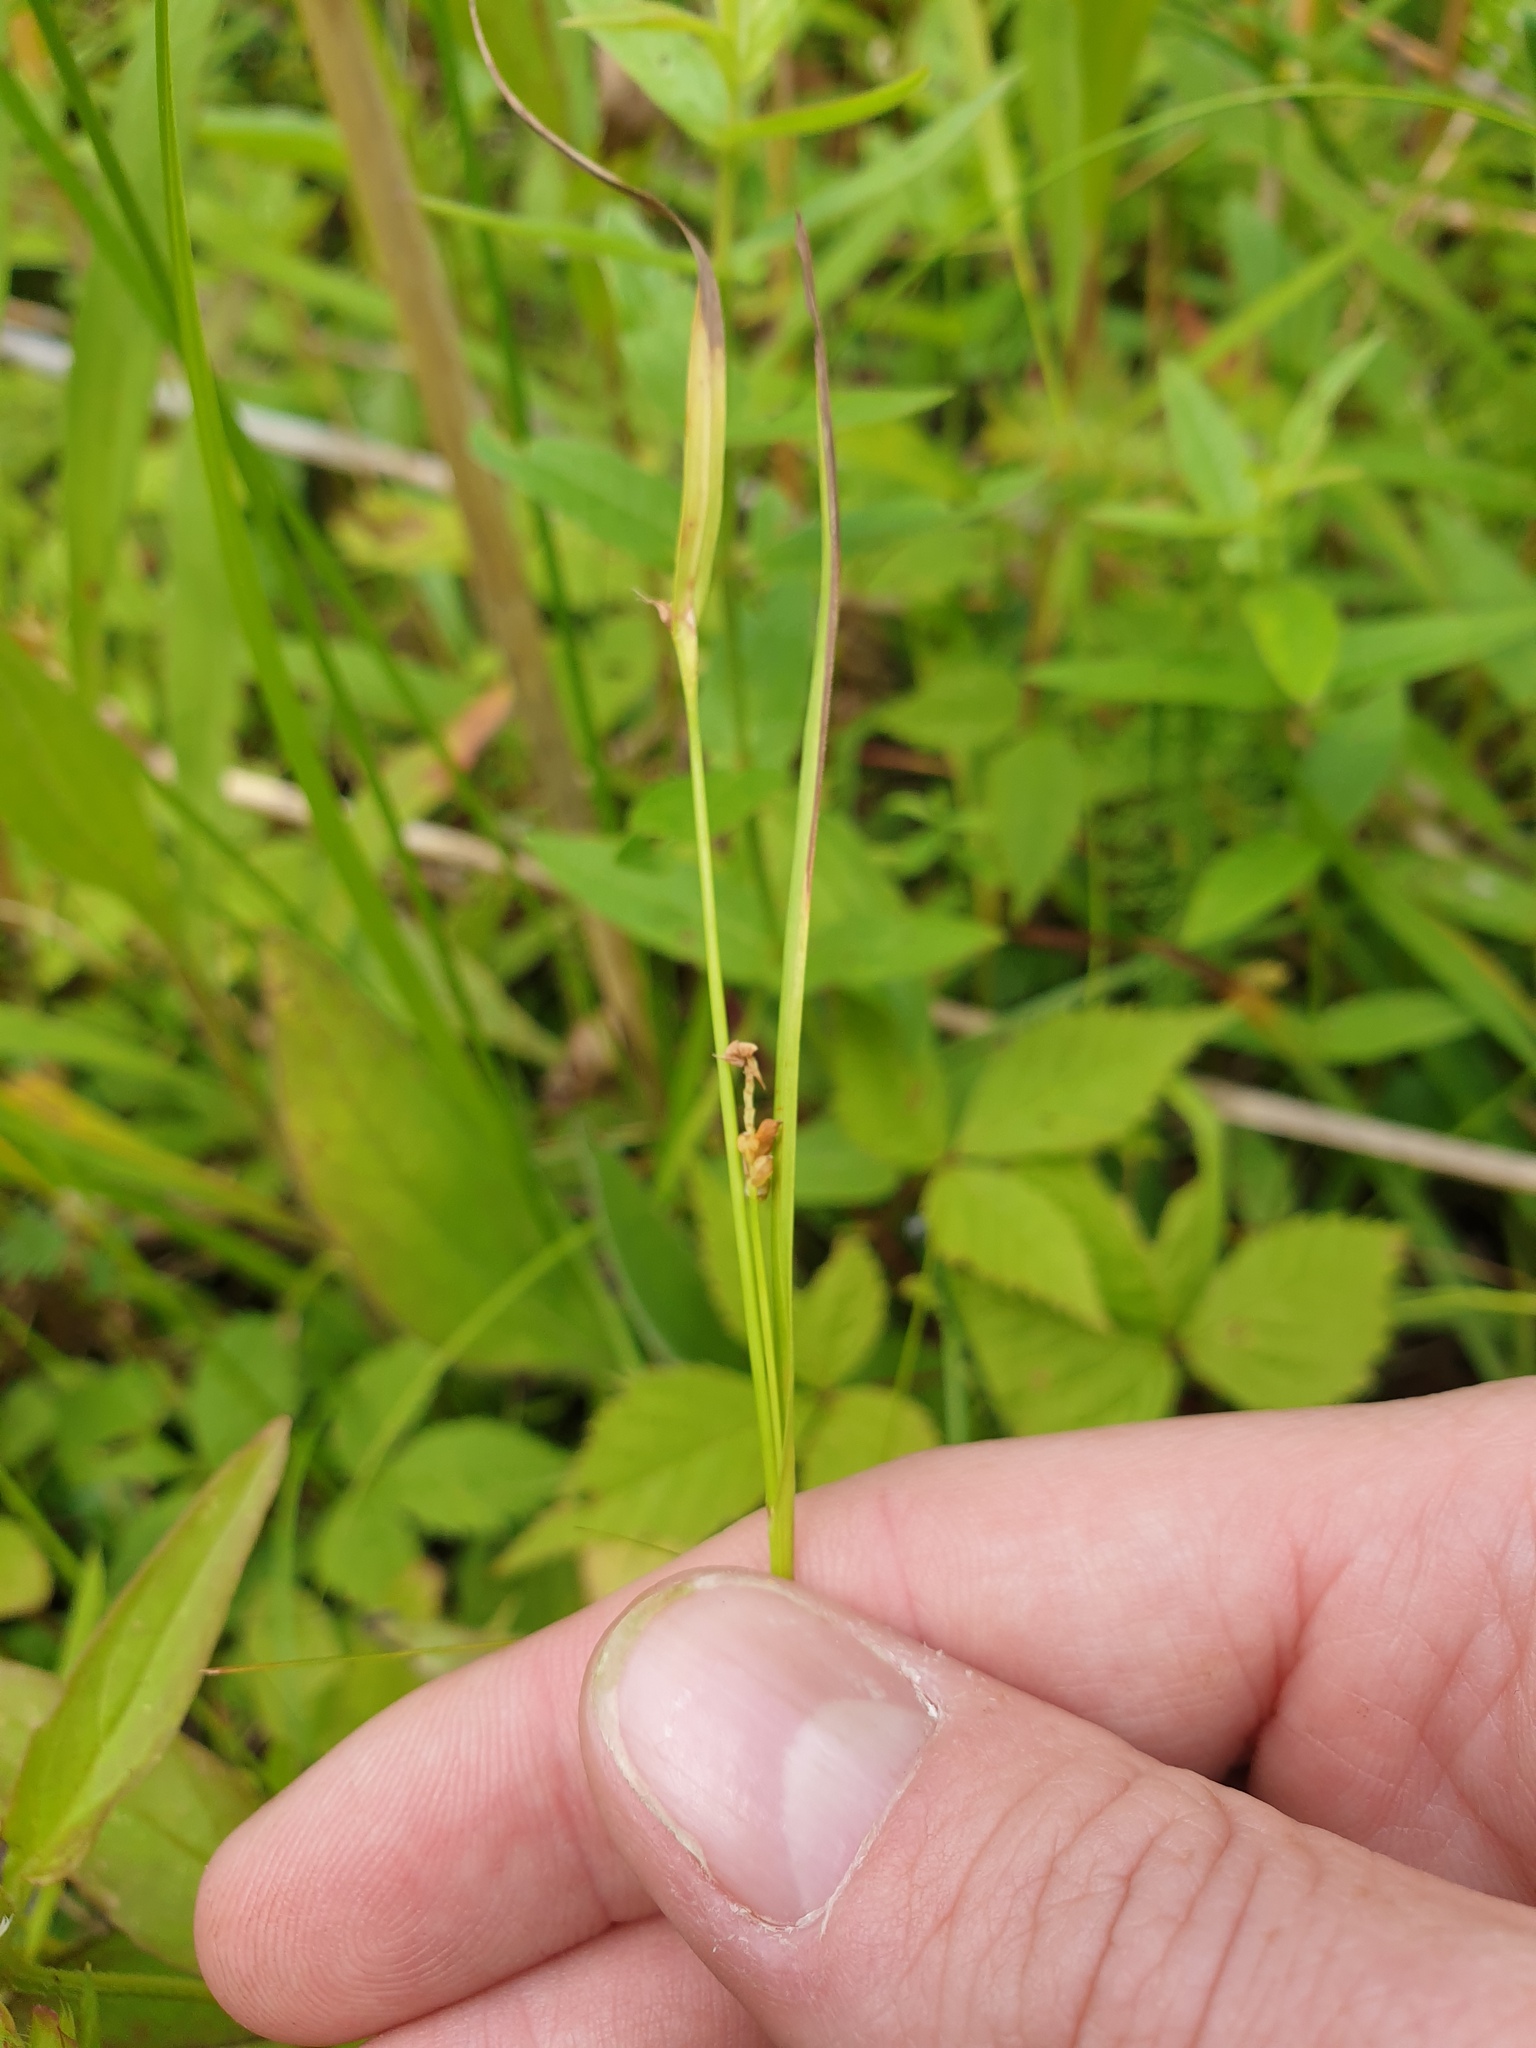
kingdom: Plantae
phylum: Tracheophyta
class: Liliopsida
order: Poales
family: Cyperaceae
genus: Carex
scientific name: Carex granularis
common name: Granular sedge
